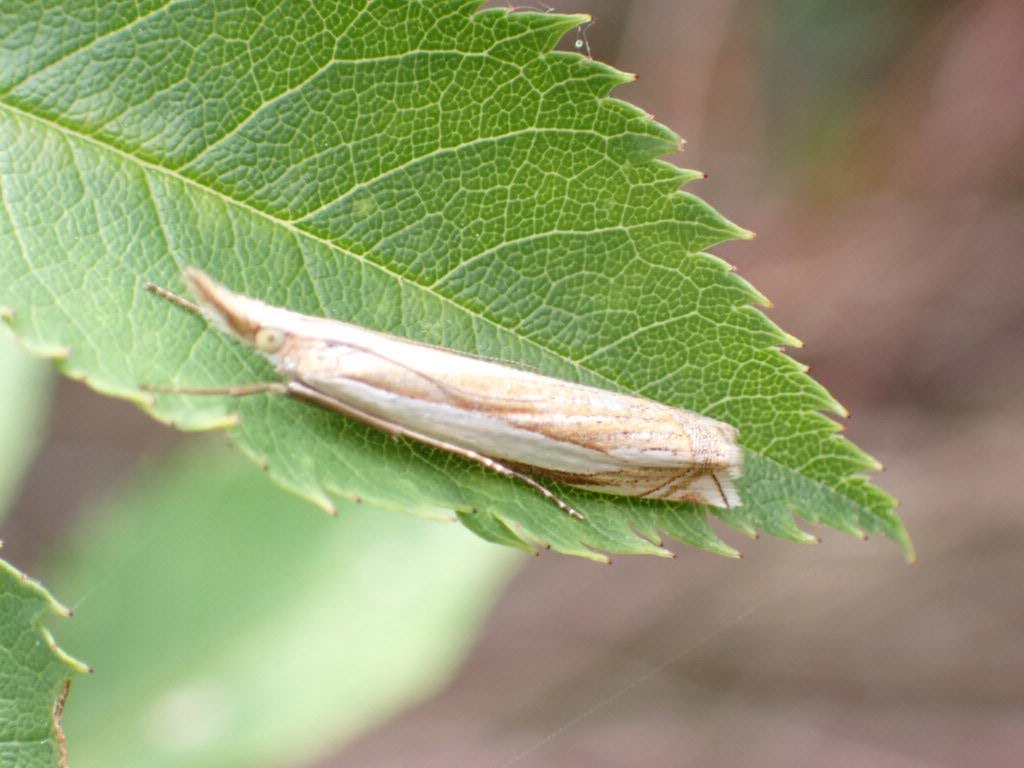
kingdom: Animalia
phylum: Arthropoda
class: Insecta
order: Lepidoptera
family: Crambidae
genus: Crambus
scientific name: Crambus pascuella
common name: Inlaid grass-veneer
